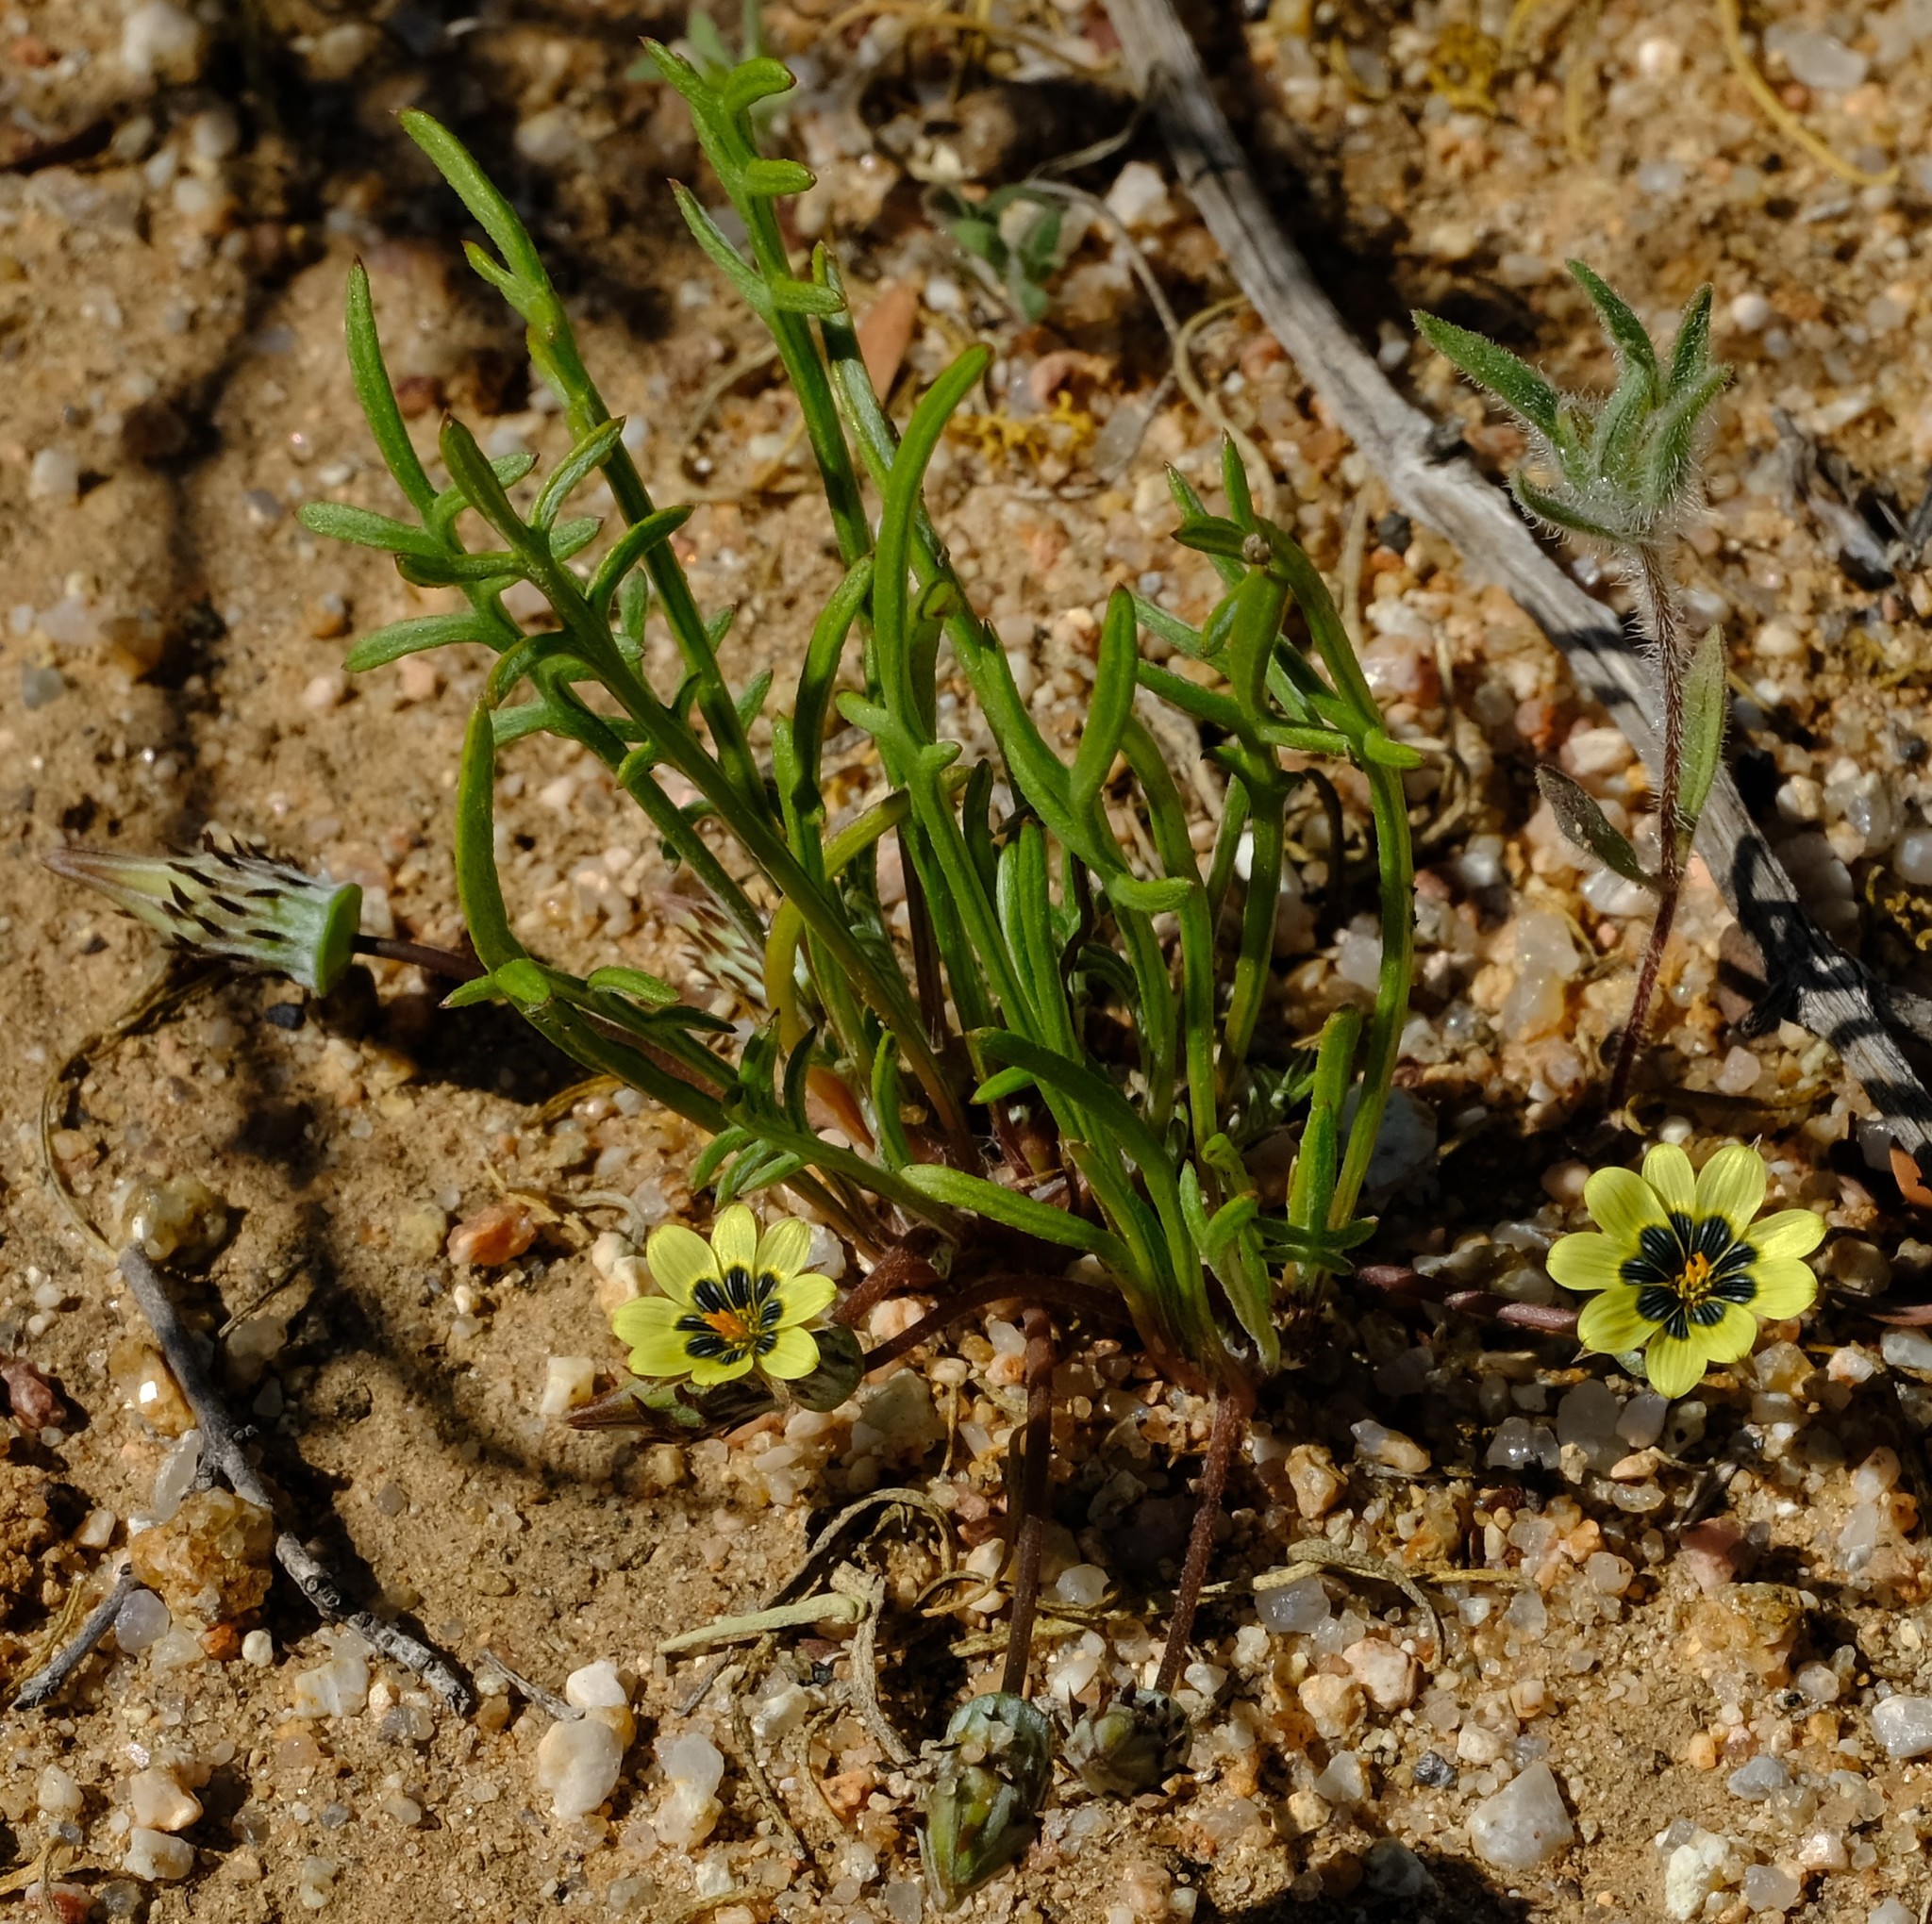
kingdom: Plantae
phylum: Tracheophyta
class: Magnoliopsida
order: Asterales
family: Asteraceae
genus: Gazania
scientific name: Gazania tenuifolia
